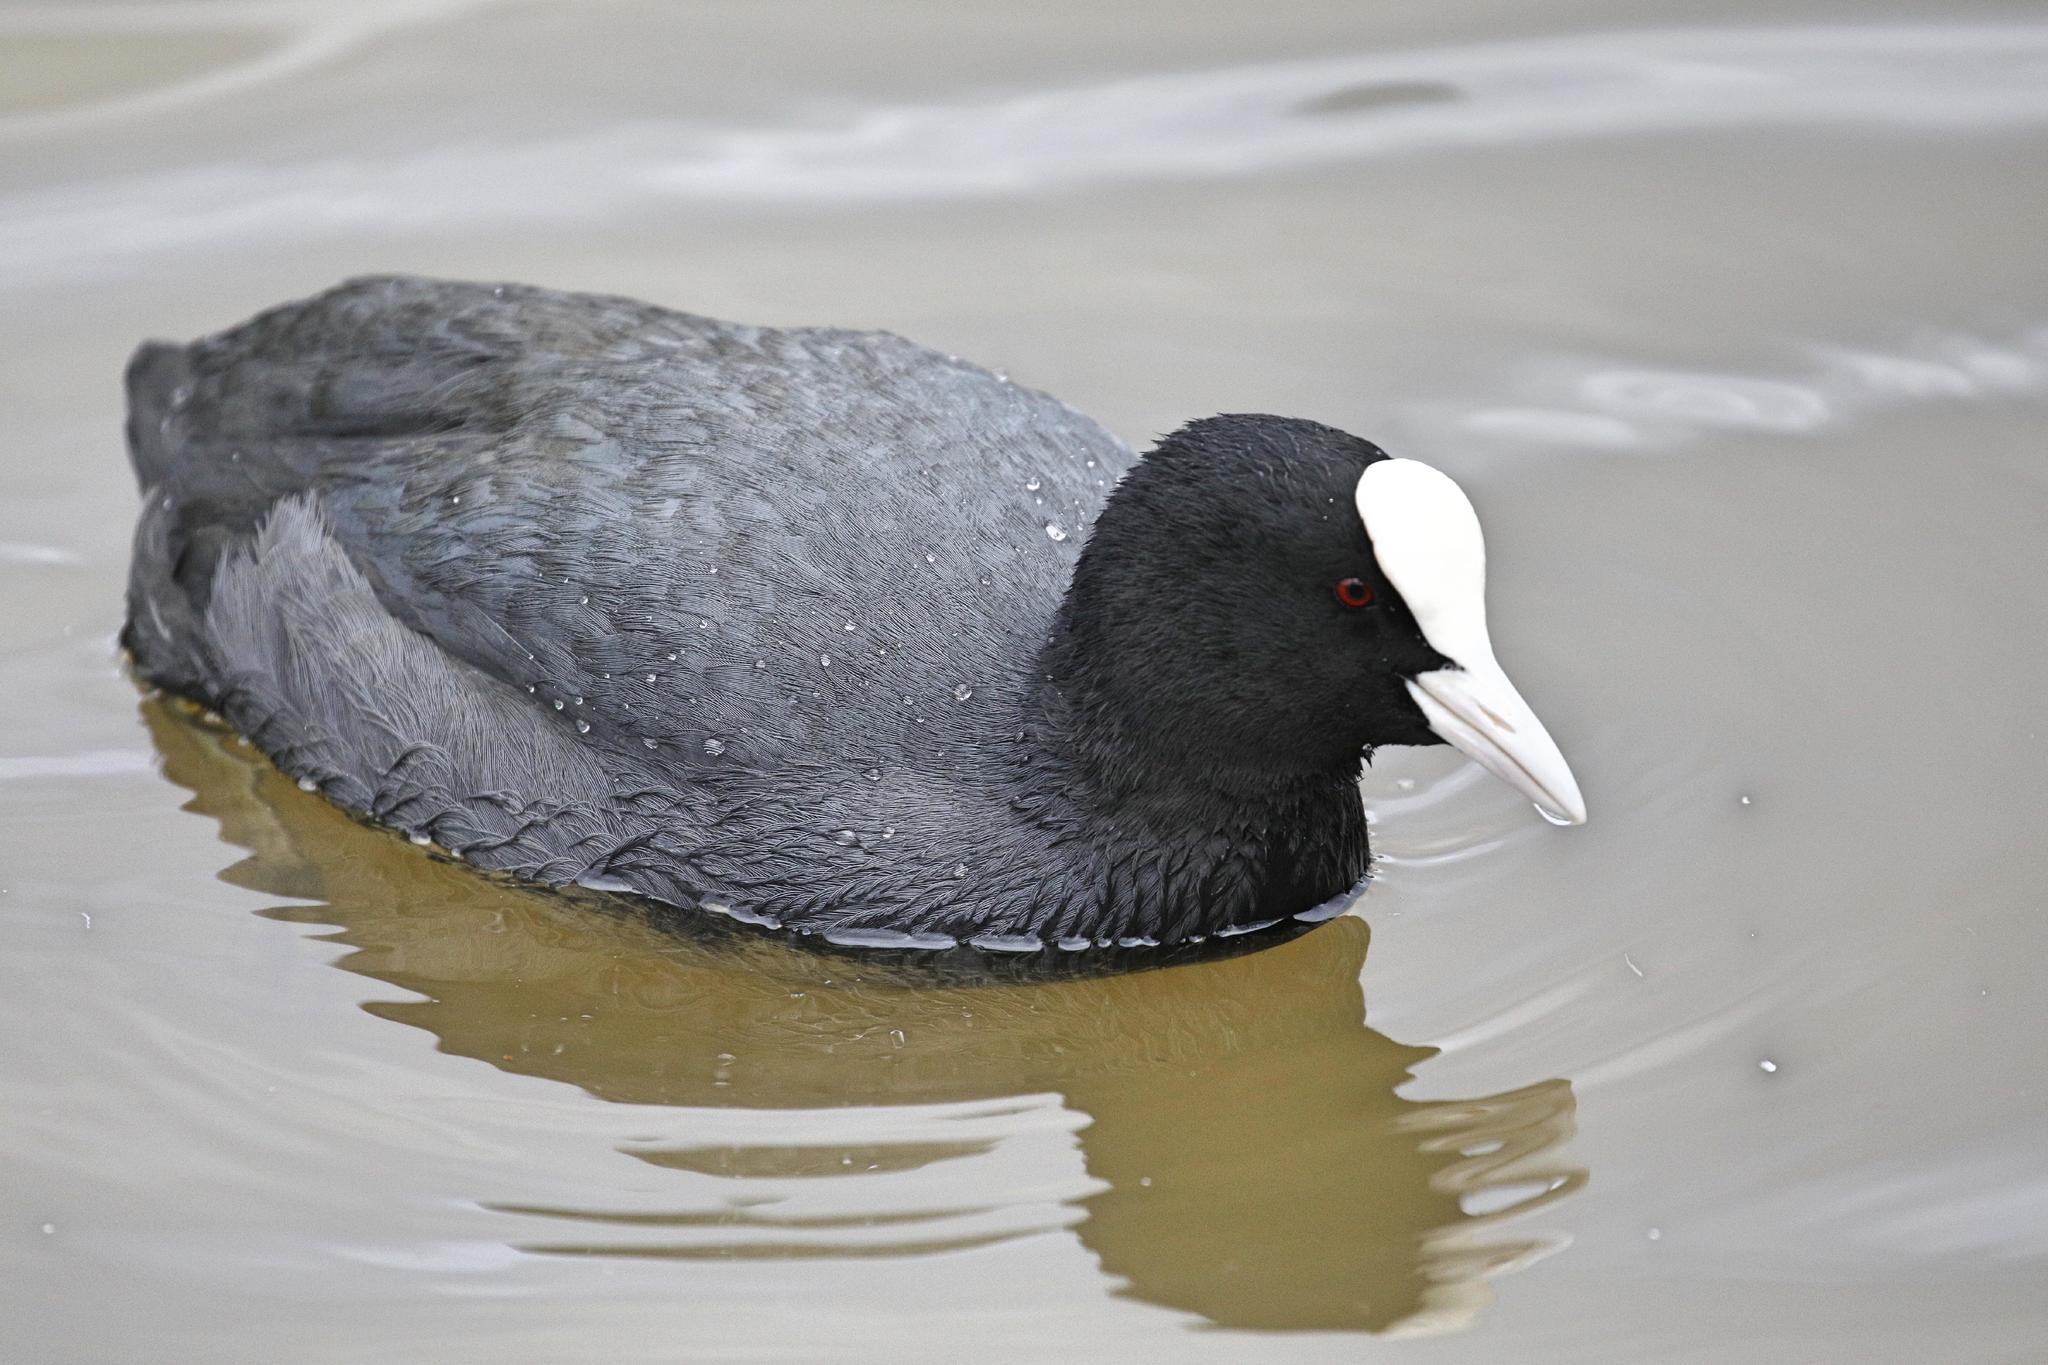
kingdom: Animalia
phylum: Chordata
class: Aves
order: Gruiformes
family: Rallidae
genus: Fulica
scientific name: Fulica atra
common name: Eurasian coot
